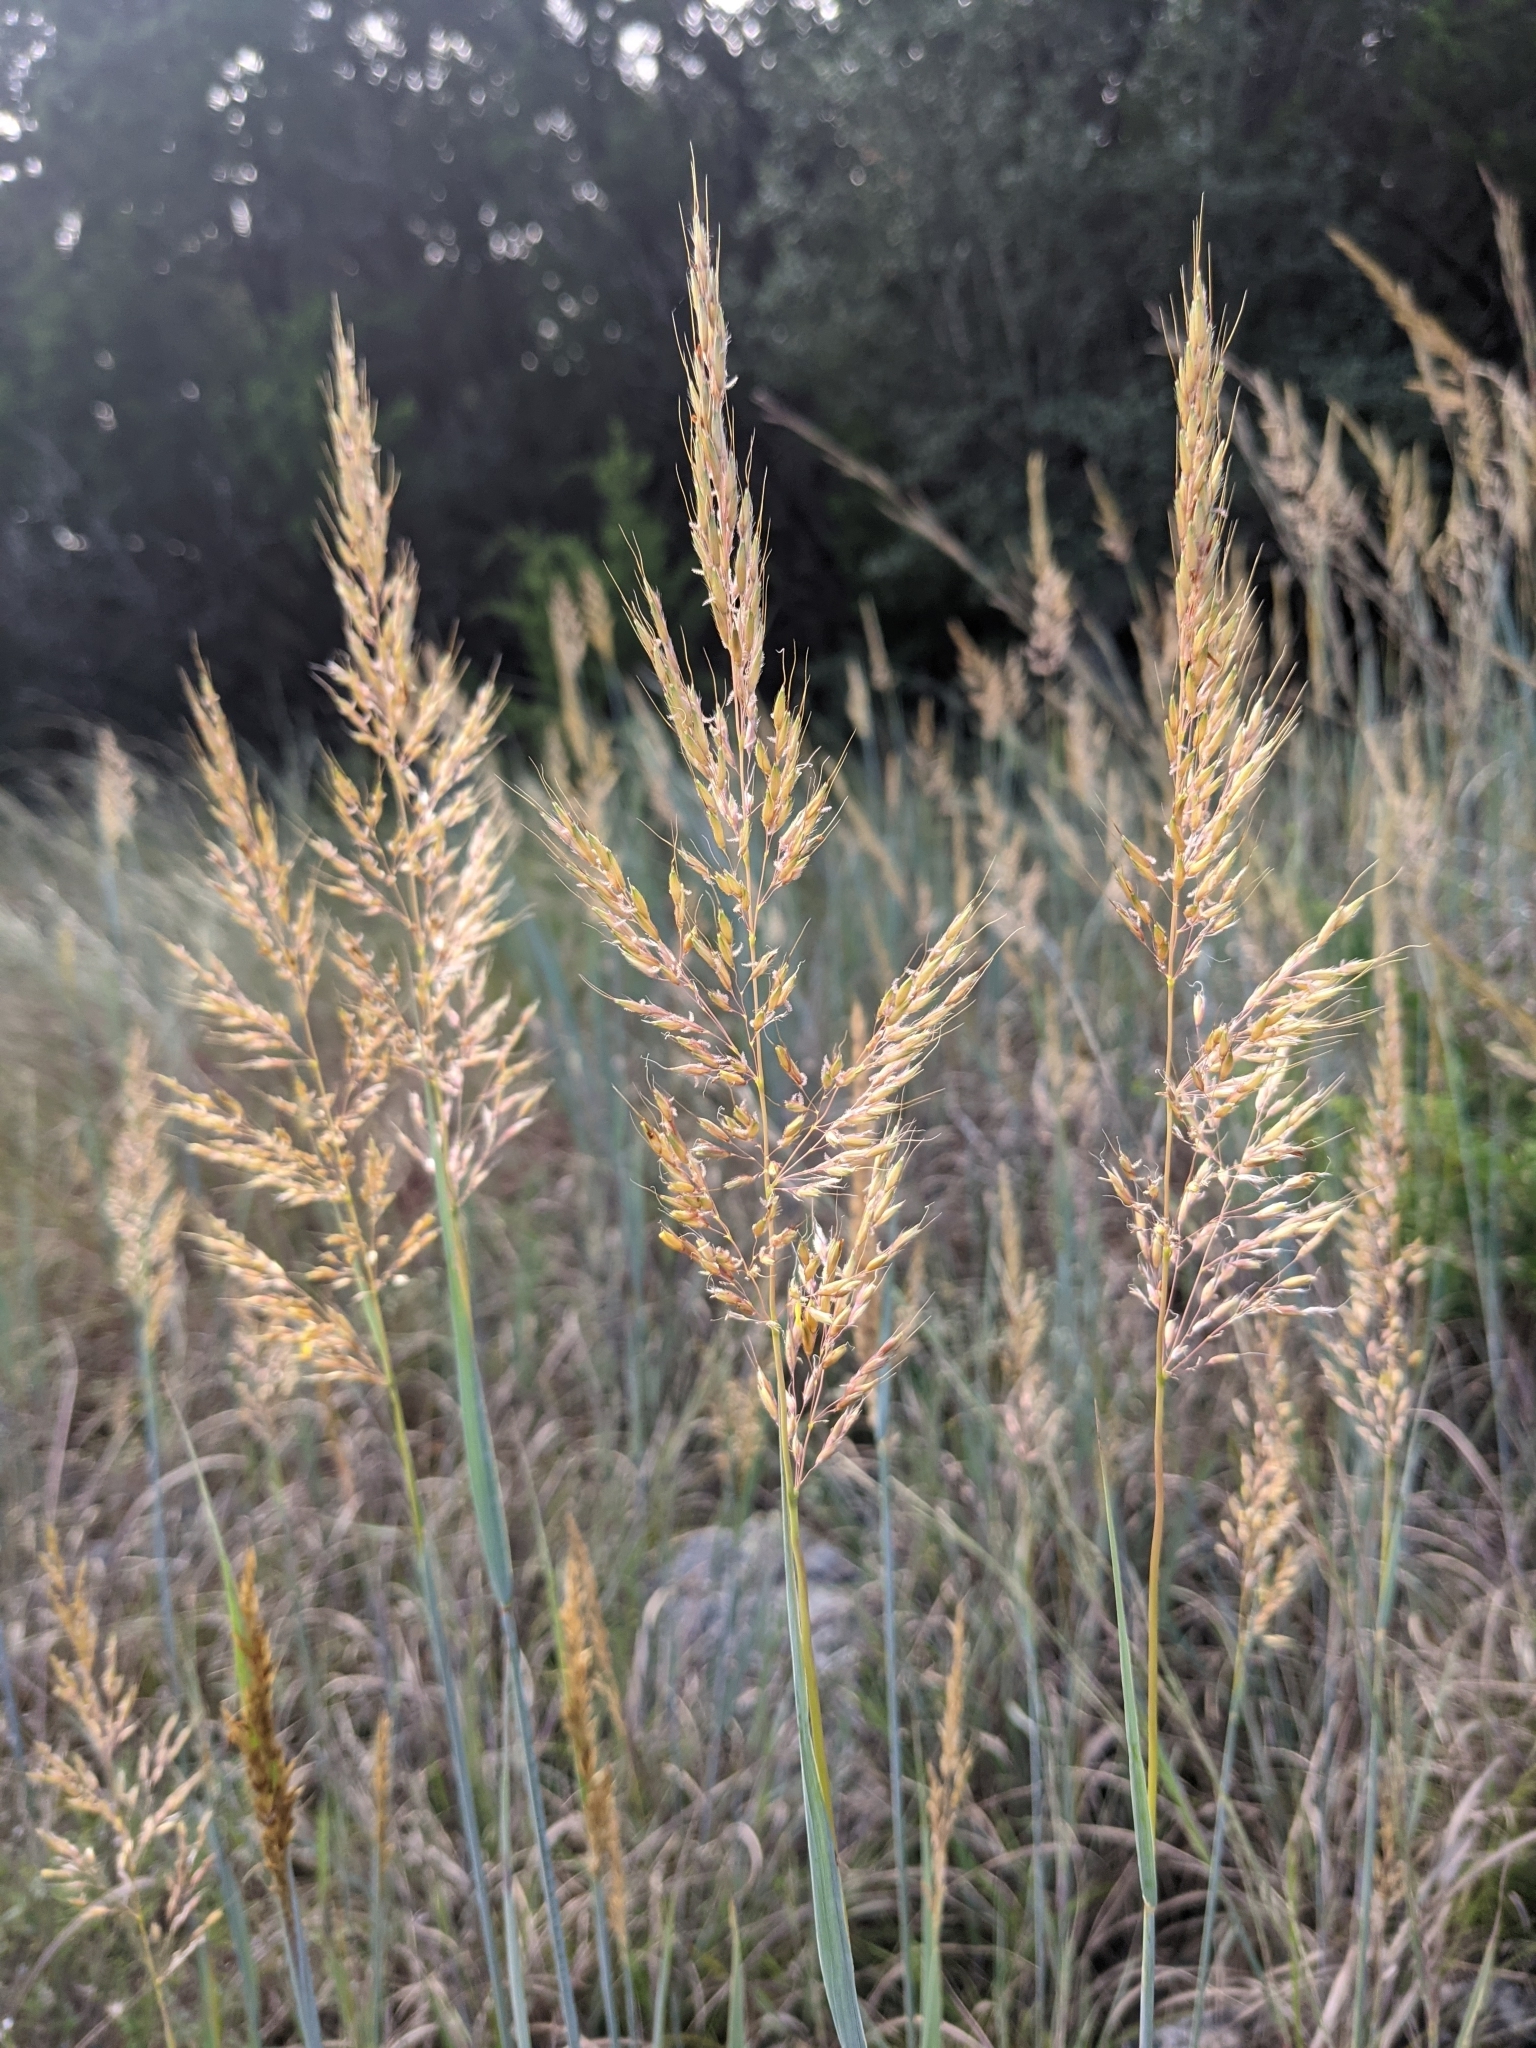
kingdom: Plantae
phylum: Tracheophyta
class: Liliopsida
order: Poales
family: Poaceae
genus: Sorghastrum
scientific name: Sorghastrum nutans
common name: Indian grass
